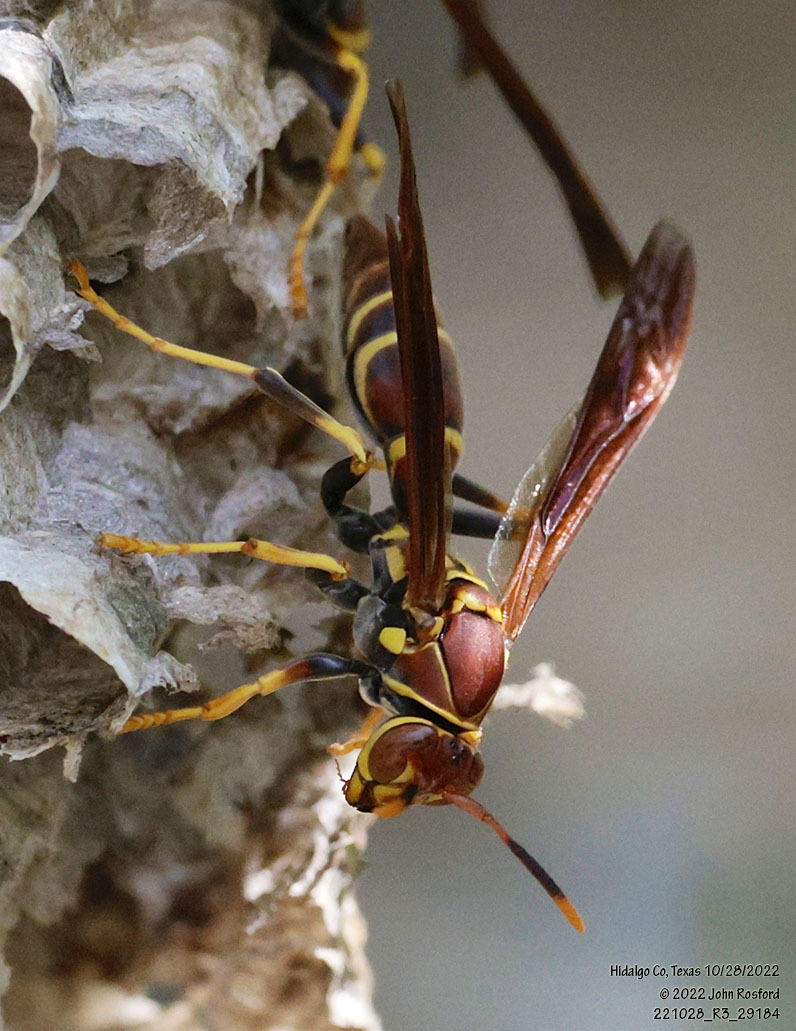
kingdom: Animalia
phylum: Arthropoda
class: Insecta
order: Hymenoptera
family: Eumenidae
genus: Polistes
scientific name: Polistes instabilis
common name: Unstable paper wasp
